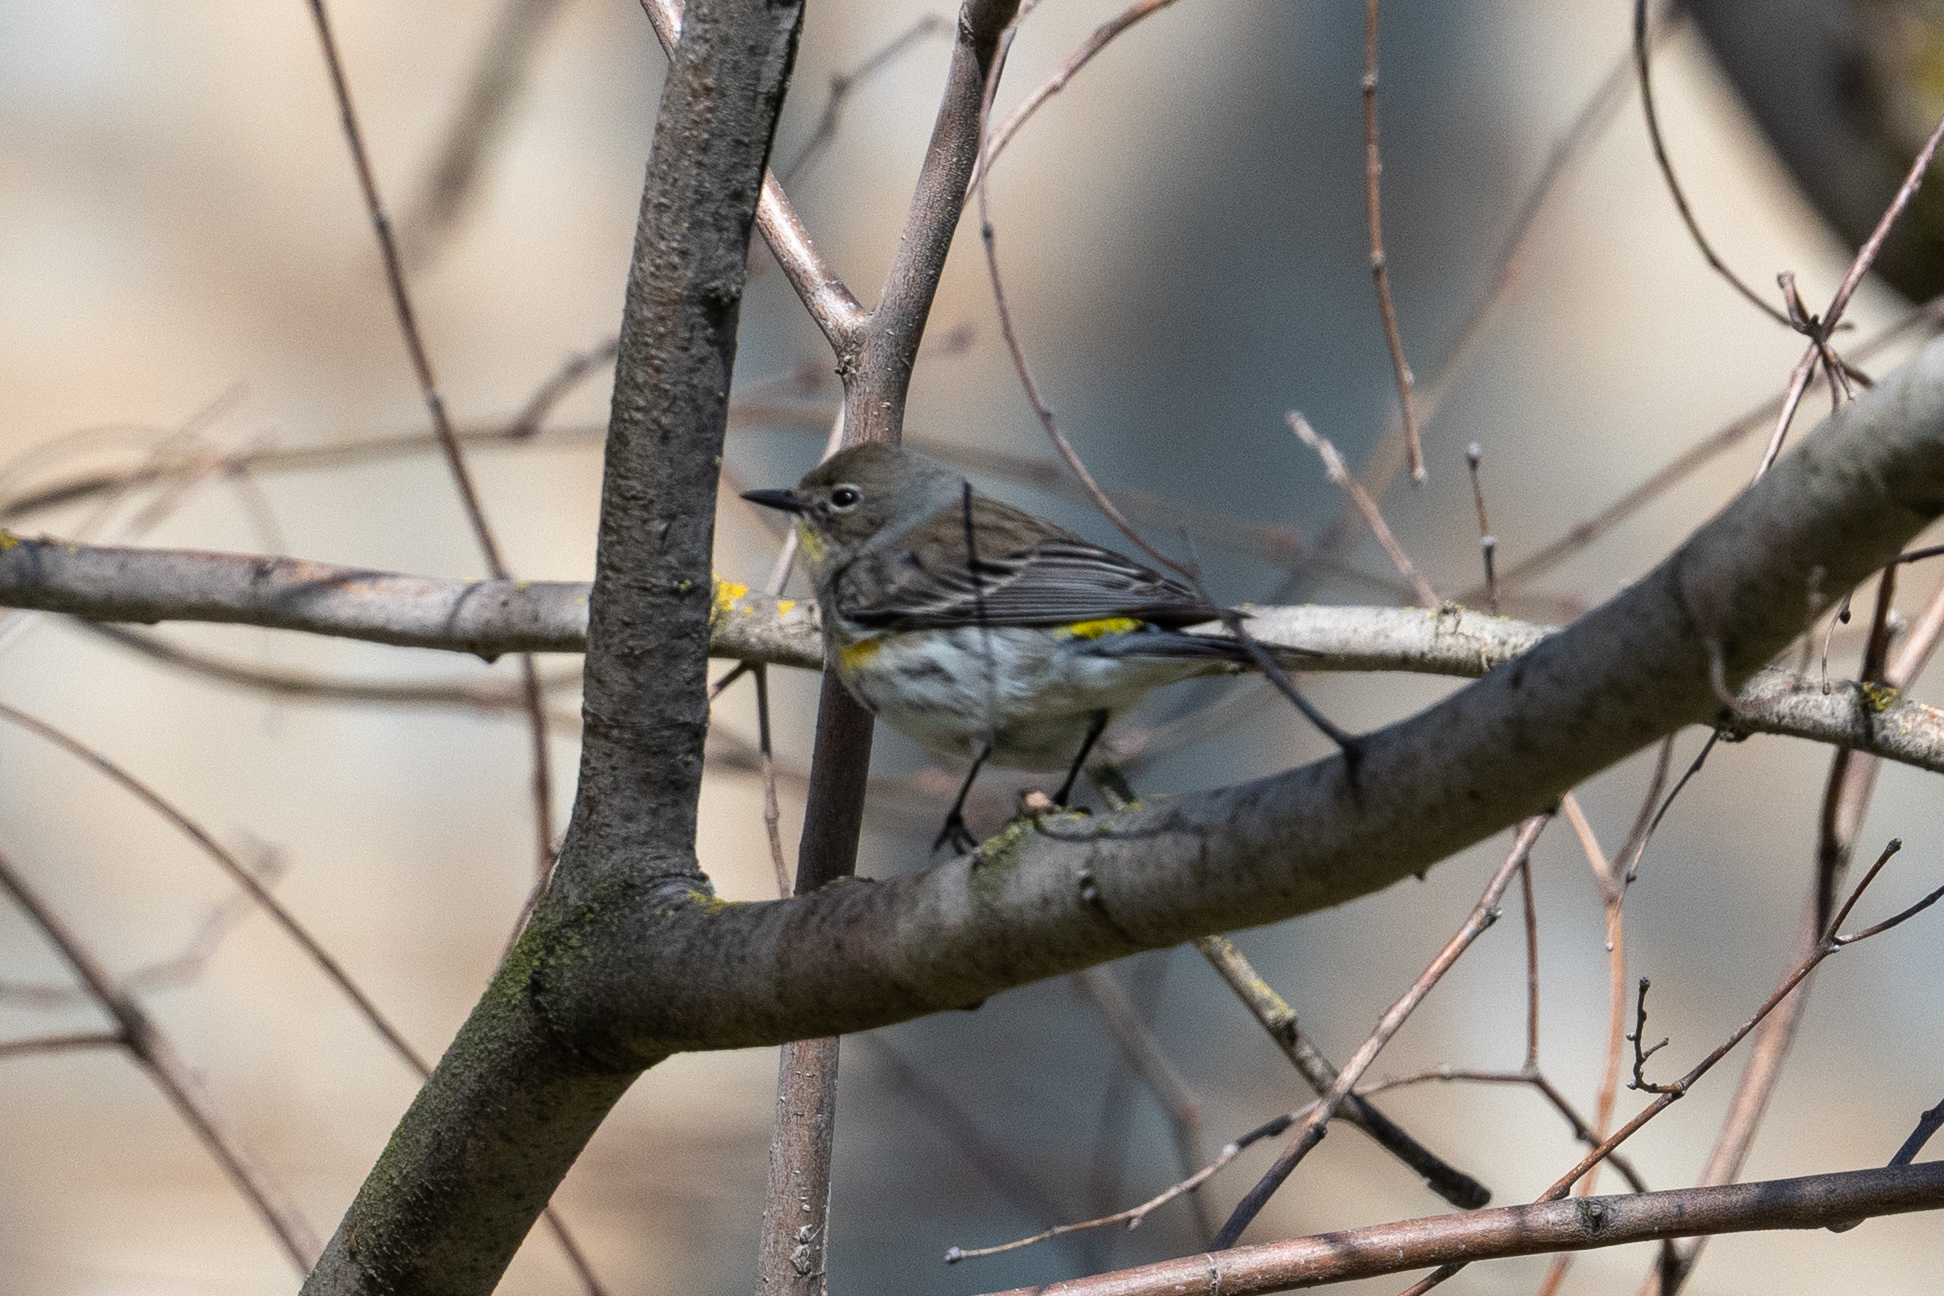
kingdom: Animalia
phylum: Chordata
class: Aves
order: Passeriformes
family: Parulidae
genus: Setophaga
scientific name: Setophaga coronata
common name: Myrtle warbler
